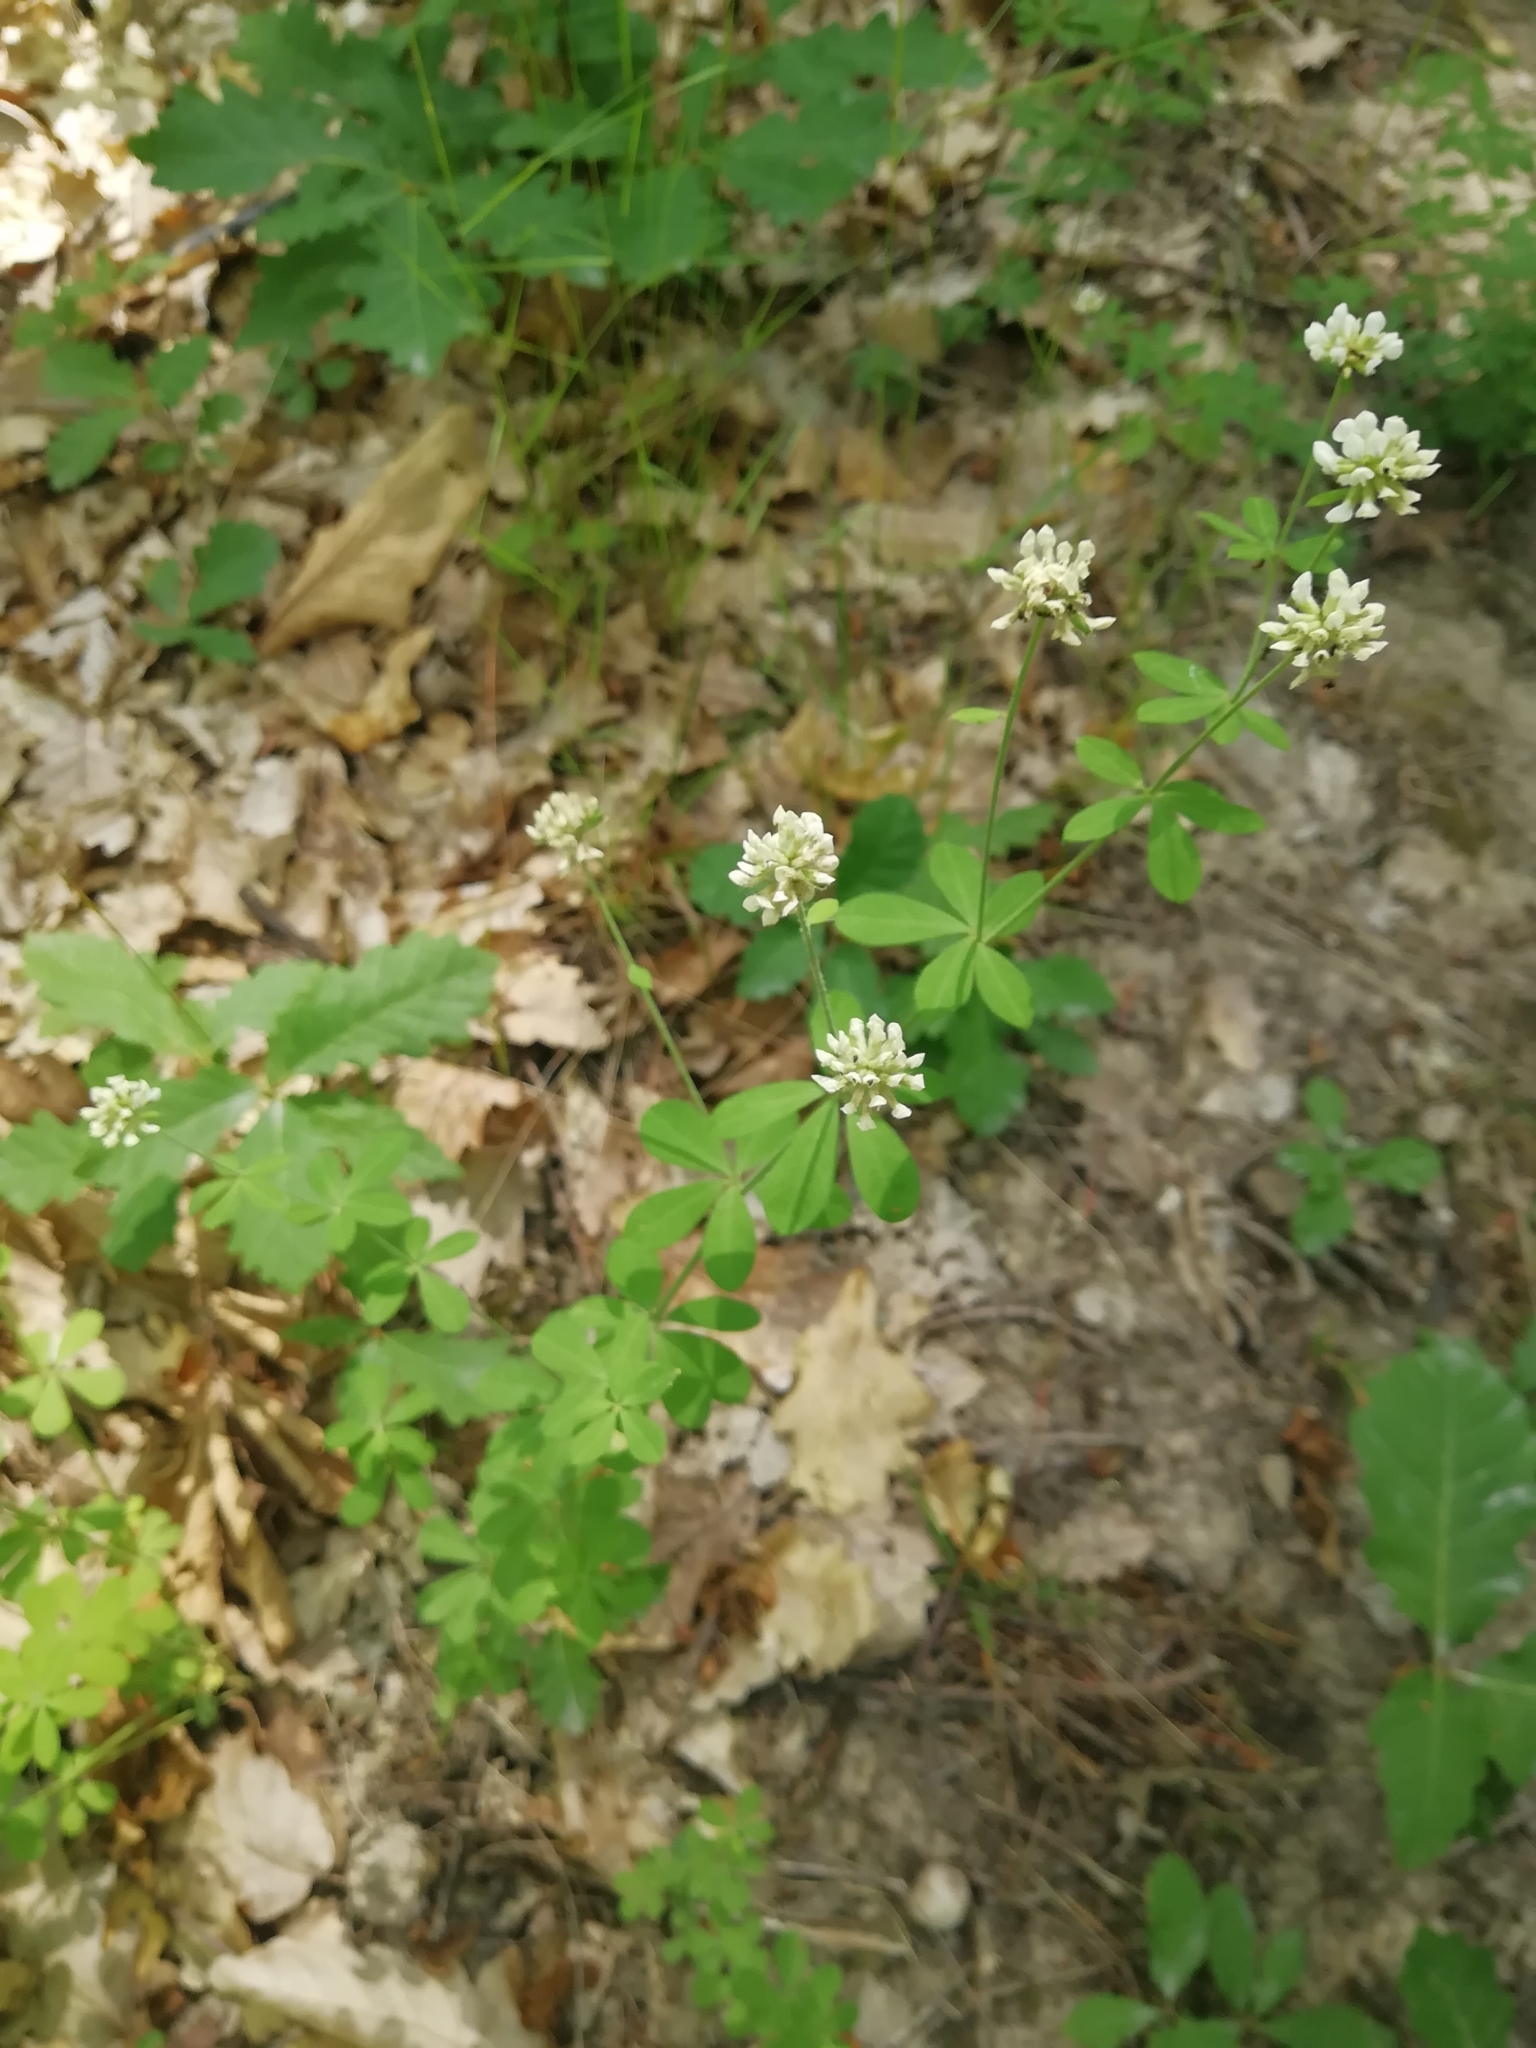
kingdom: Plantae
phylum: Tracheophyta
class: Magnoliopsida
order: Fabales
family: Fabaceae
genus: Lotus
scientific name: Lotus herbaceus
